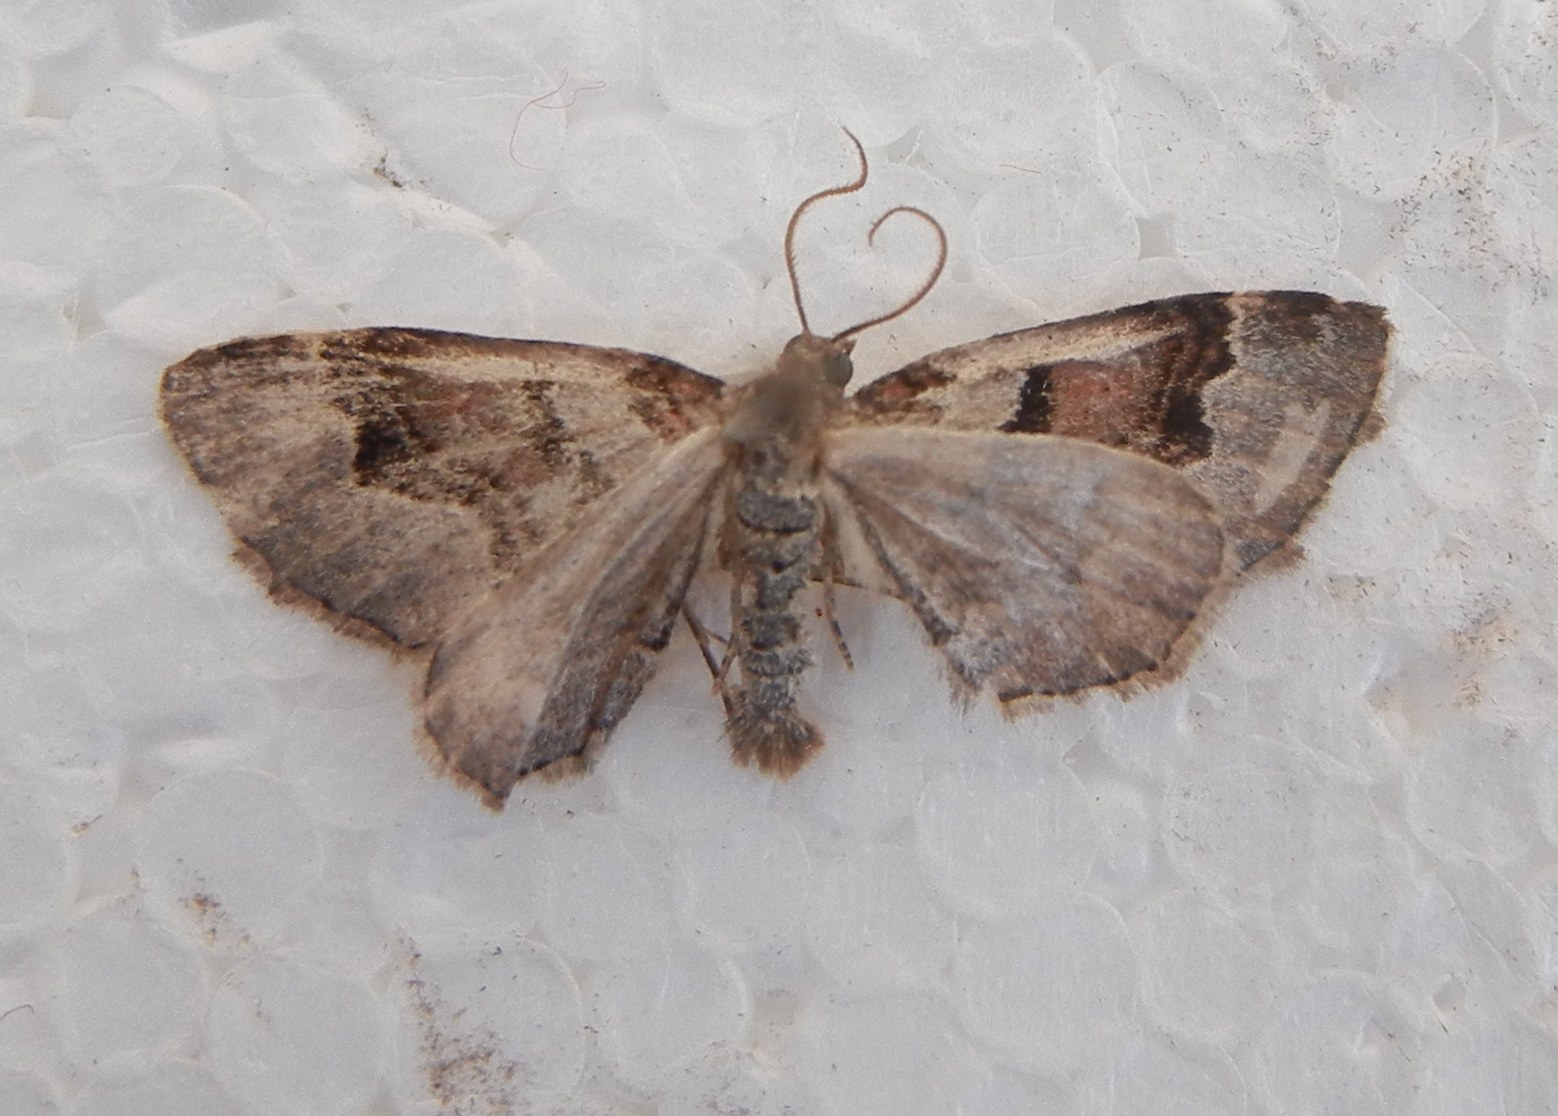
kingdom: Animalia
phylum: Arthropoda
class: Insecta
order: Lepidoptera
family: Geometridae
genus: Xanthorhoe
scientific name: Xanthorhoe designata
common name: Flame carpet
